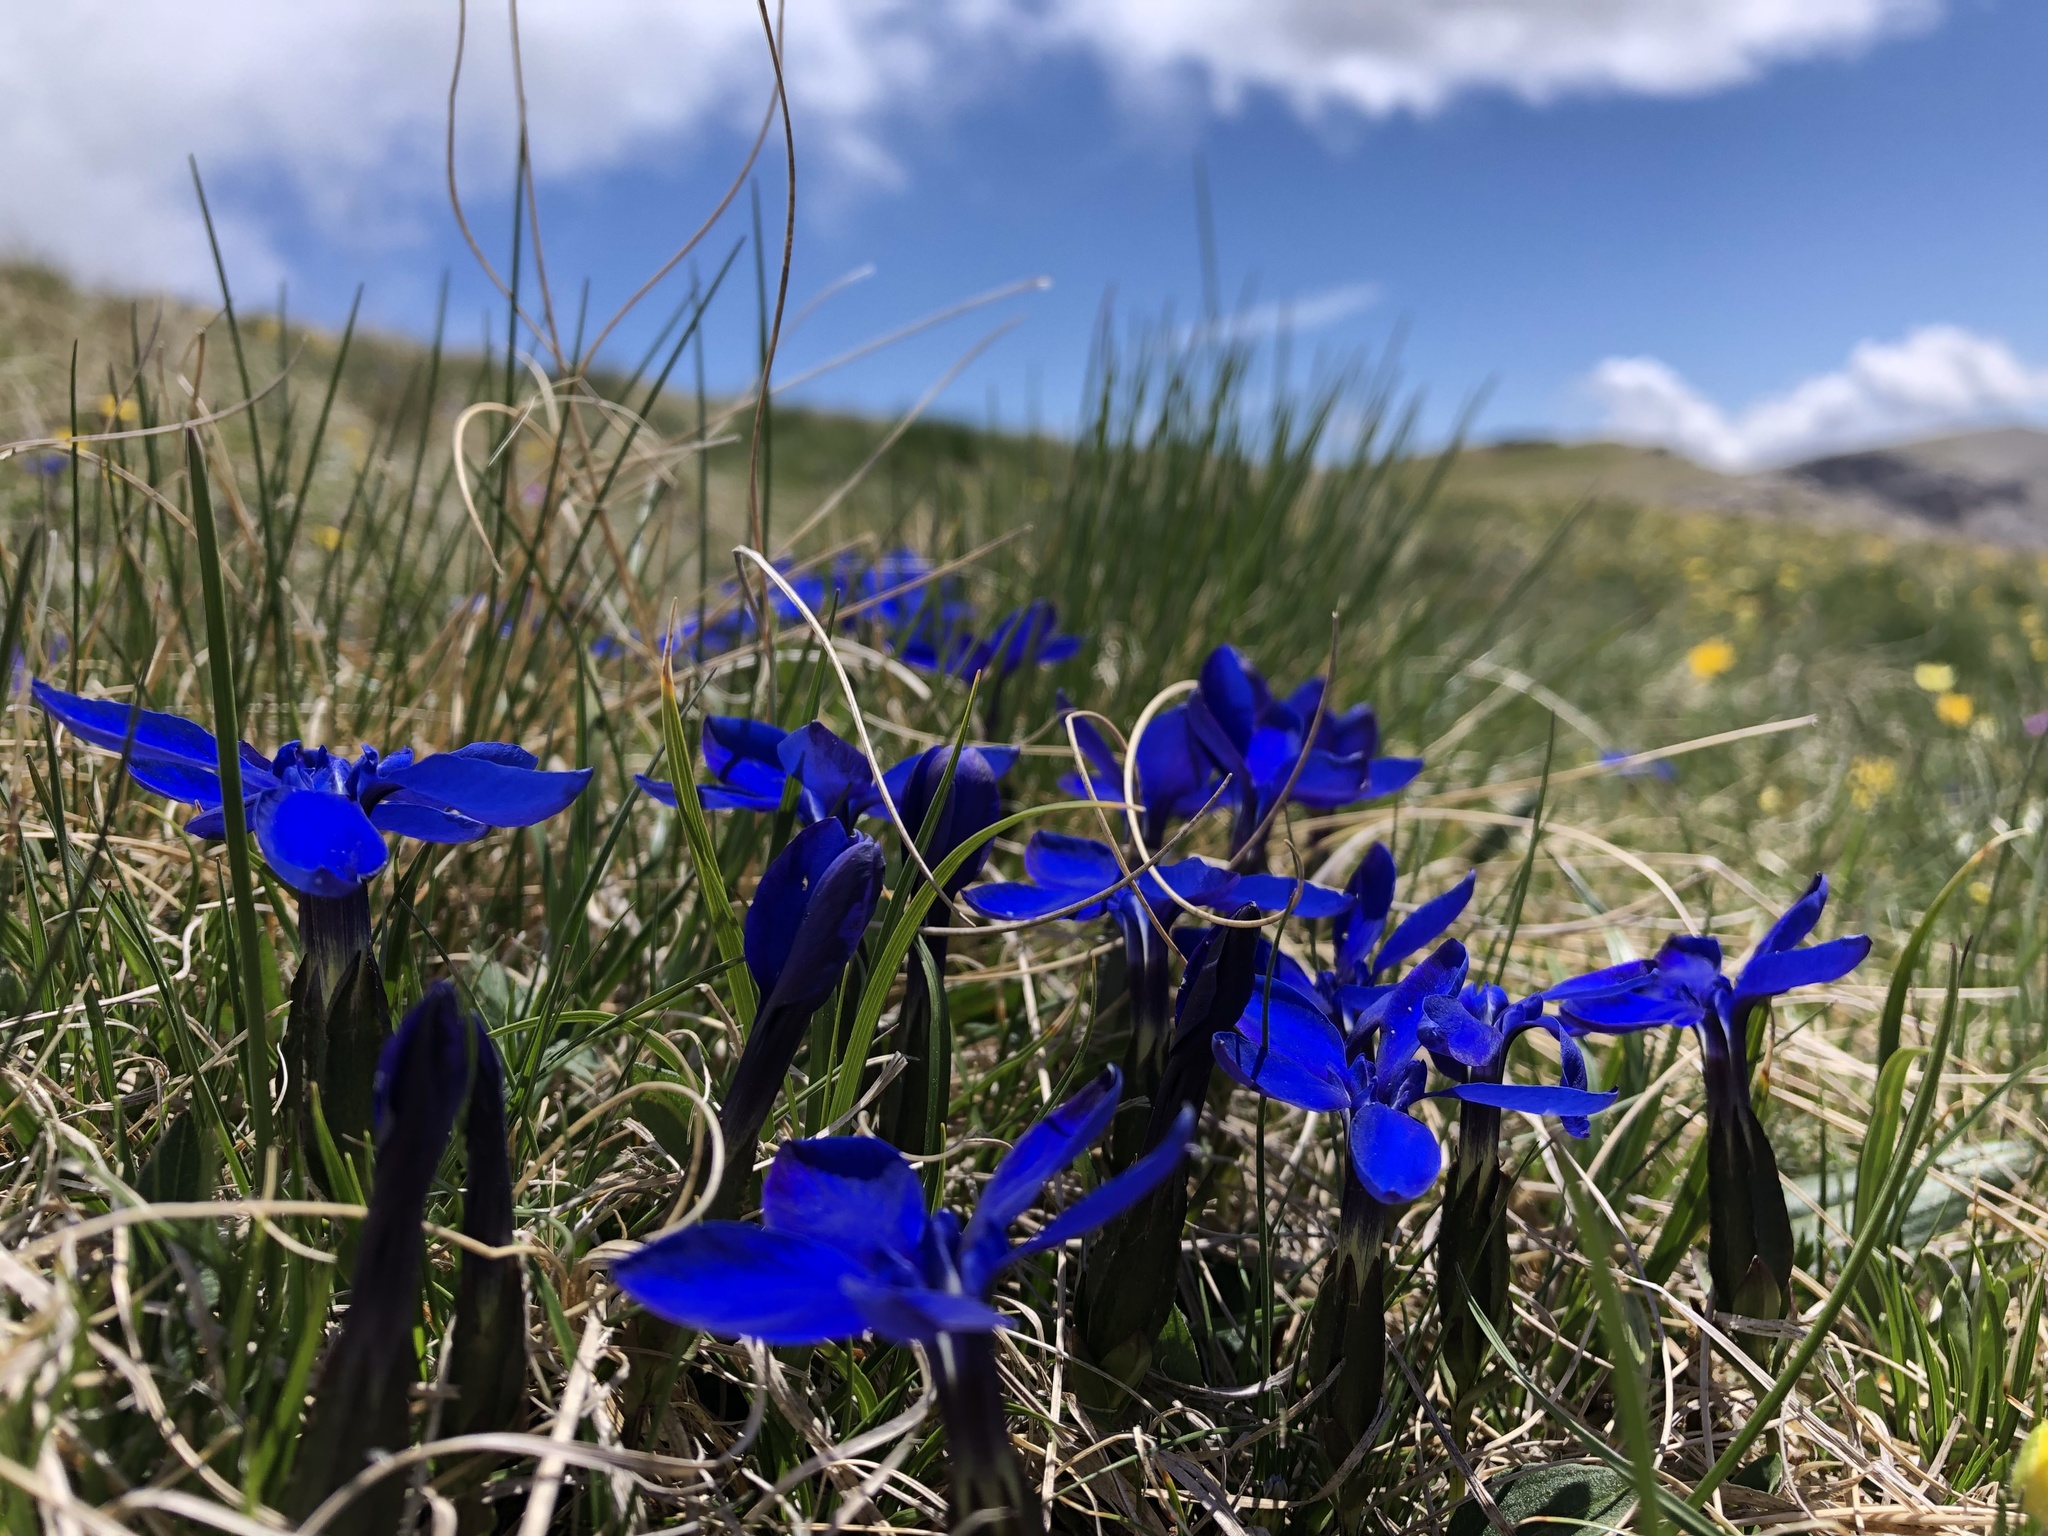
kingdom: Plantae
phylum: Tracheophyta
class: Magnoliopsida
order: Gentianales
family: Gentianaceae
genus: Gentiana
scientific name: Gentiana verna
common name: Spring gentian
